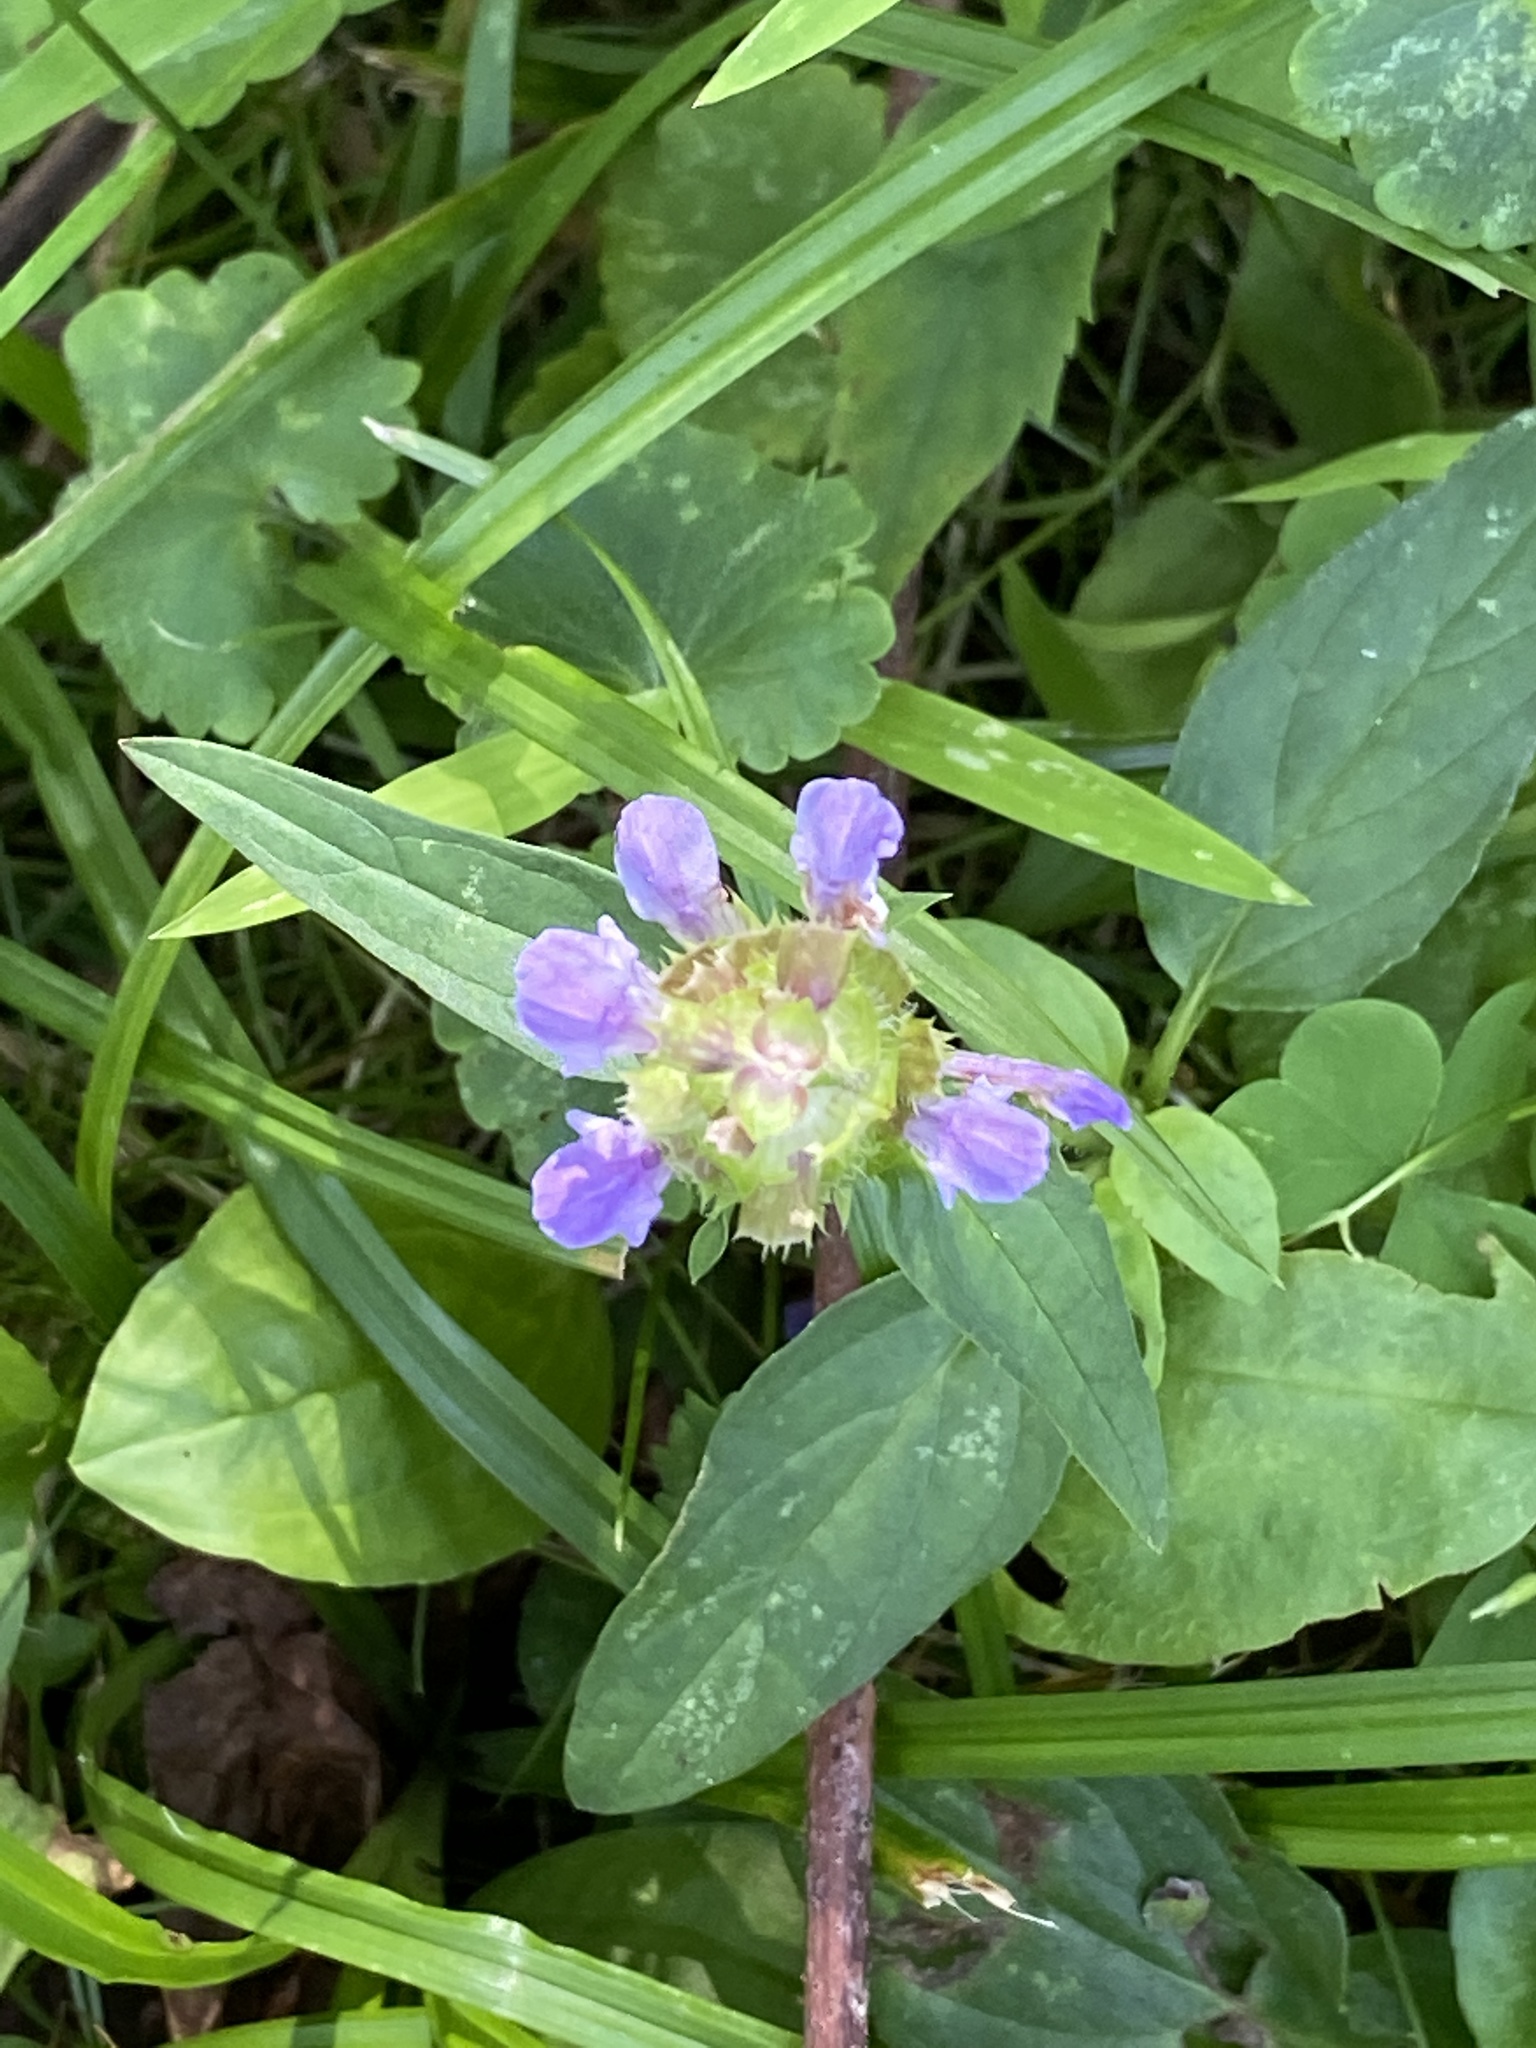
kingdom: Plantae
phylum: Tracheophyta
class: Magnoliopsida
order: Lamiales
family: Lamiaceae
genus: Prunella
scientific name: Prunella vulgaris
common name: Heal-all
